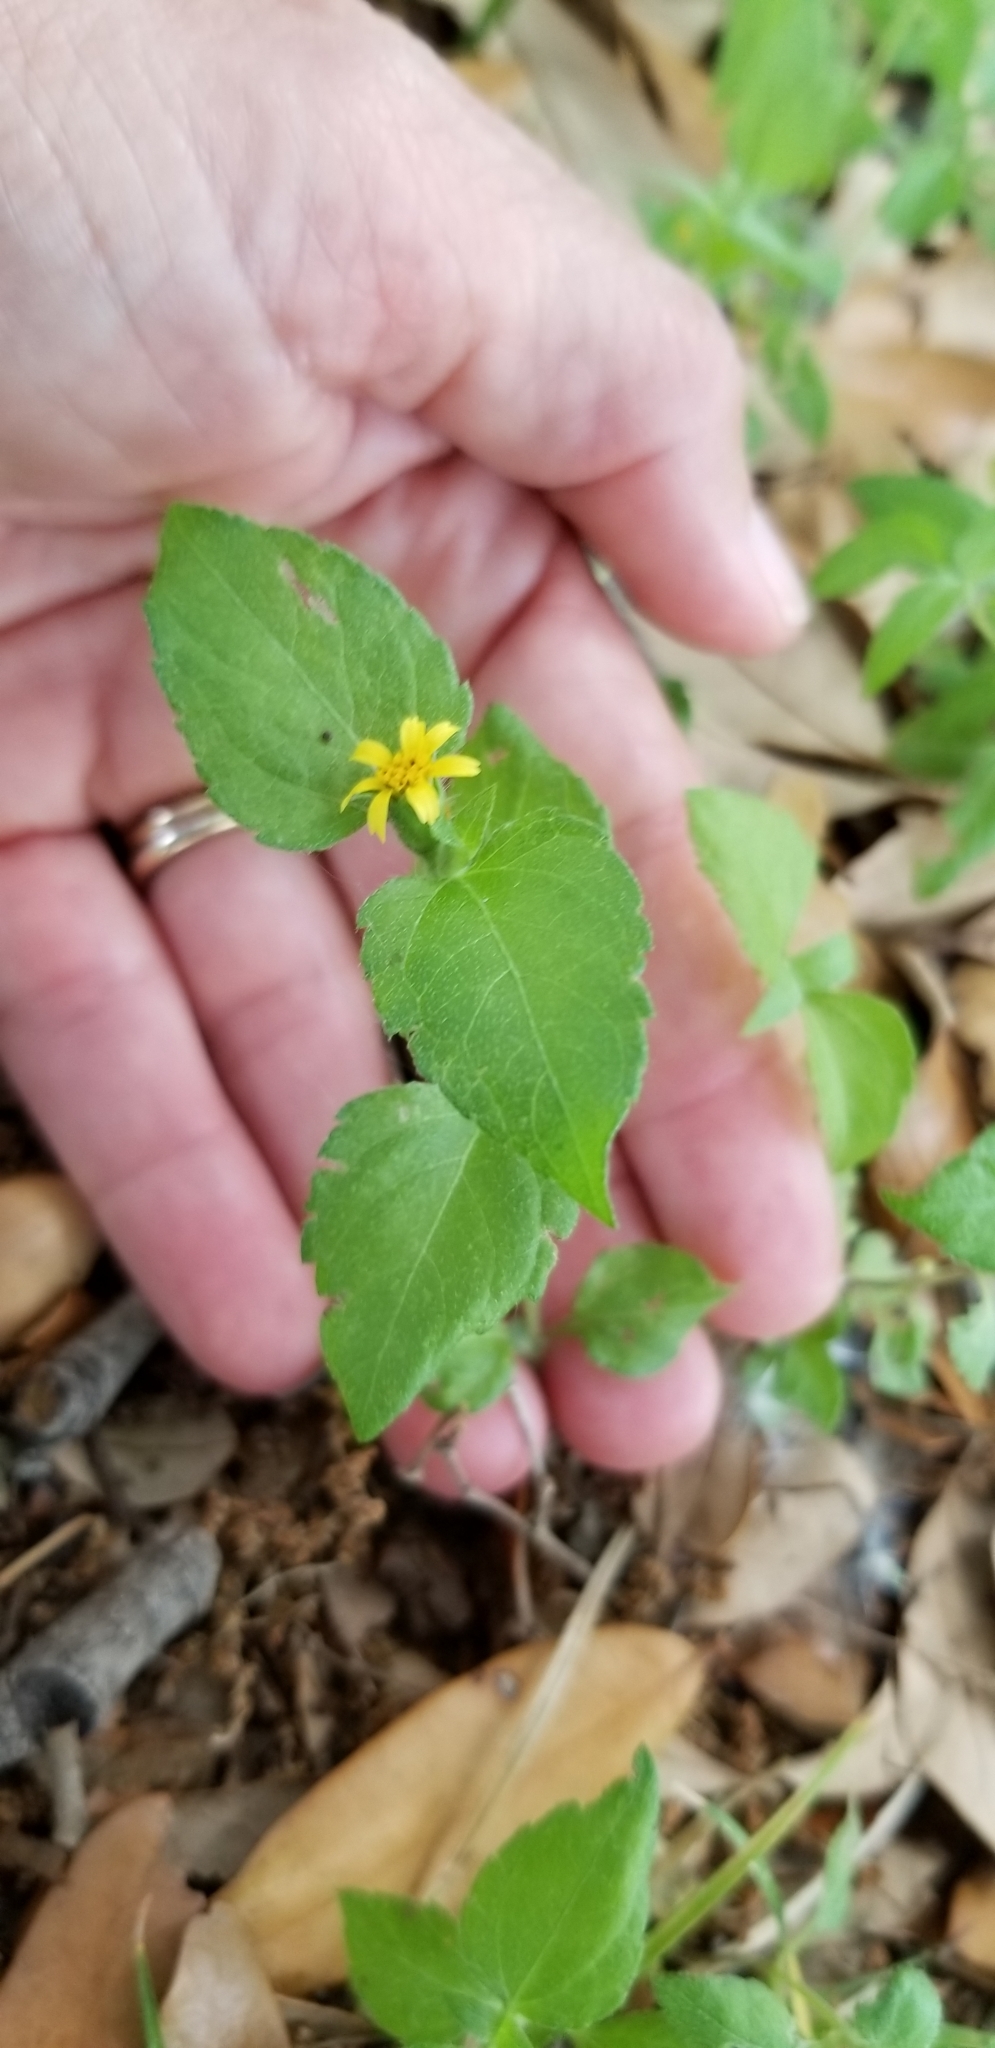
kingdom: Plantae
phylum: Tracheophyta
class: Magnoliopsida
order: Asterales
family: Asteraceae
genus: Calyptocarpus
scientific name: Calyptocarpus vialis
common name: Straggler daisy
